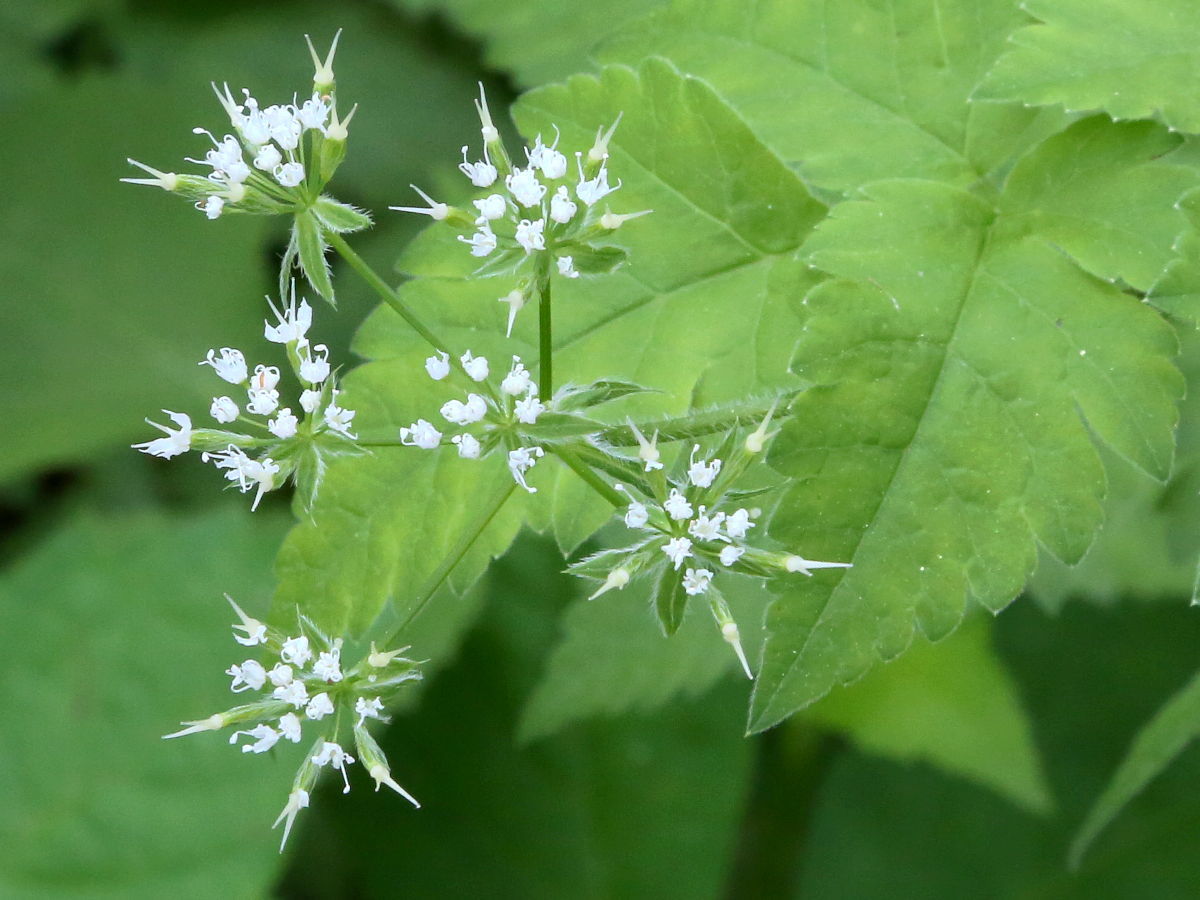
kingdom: Plantae
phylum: Tracheophyta
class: Magnoliopsida
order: Apiales
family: Apiaceae
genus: Osmorhiza
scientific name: Osmorhiza longistylis
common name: Smooth sweet cicely
